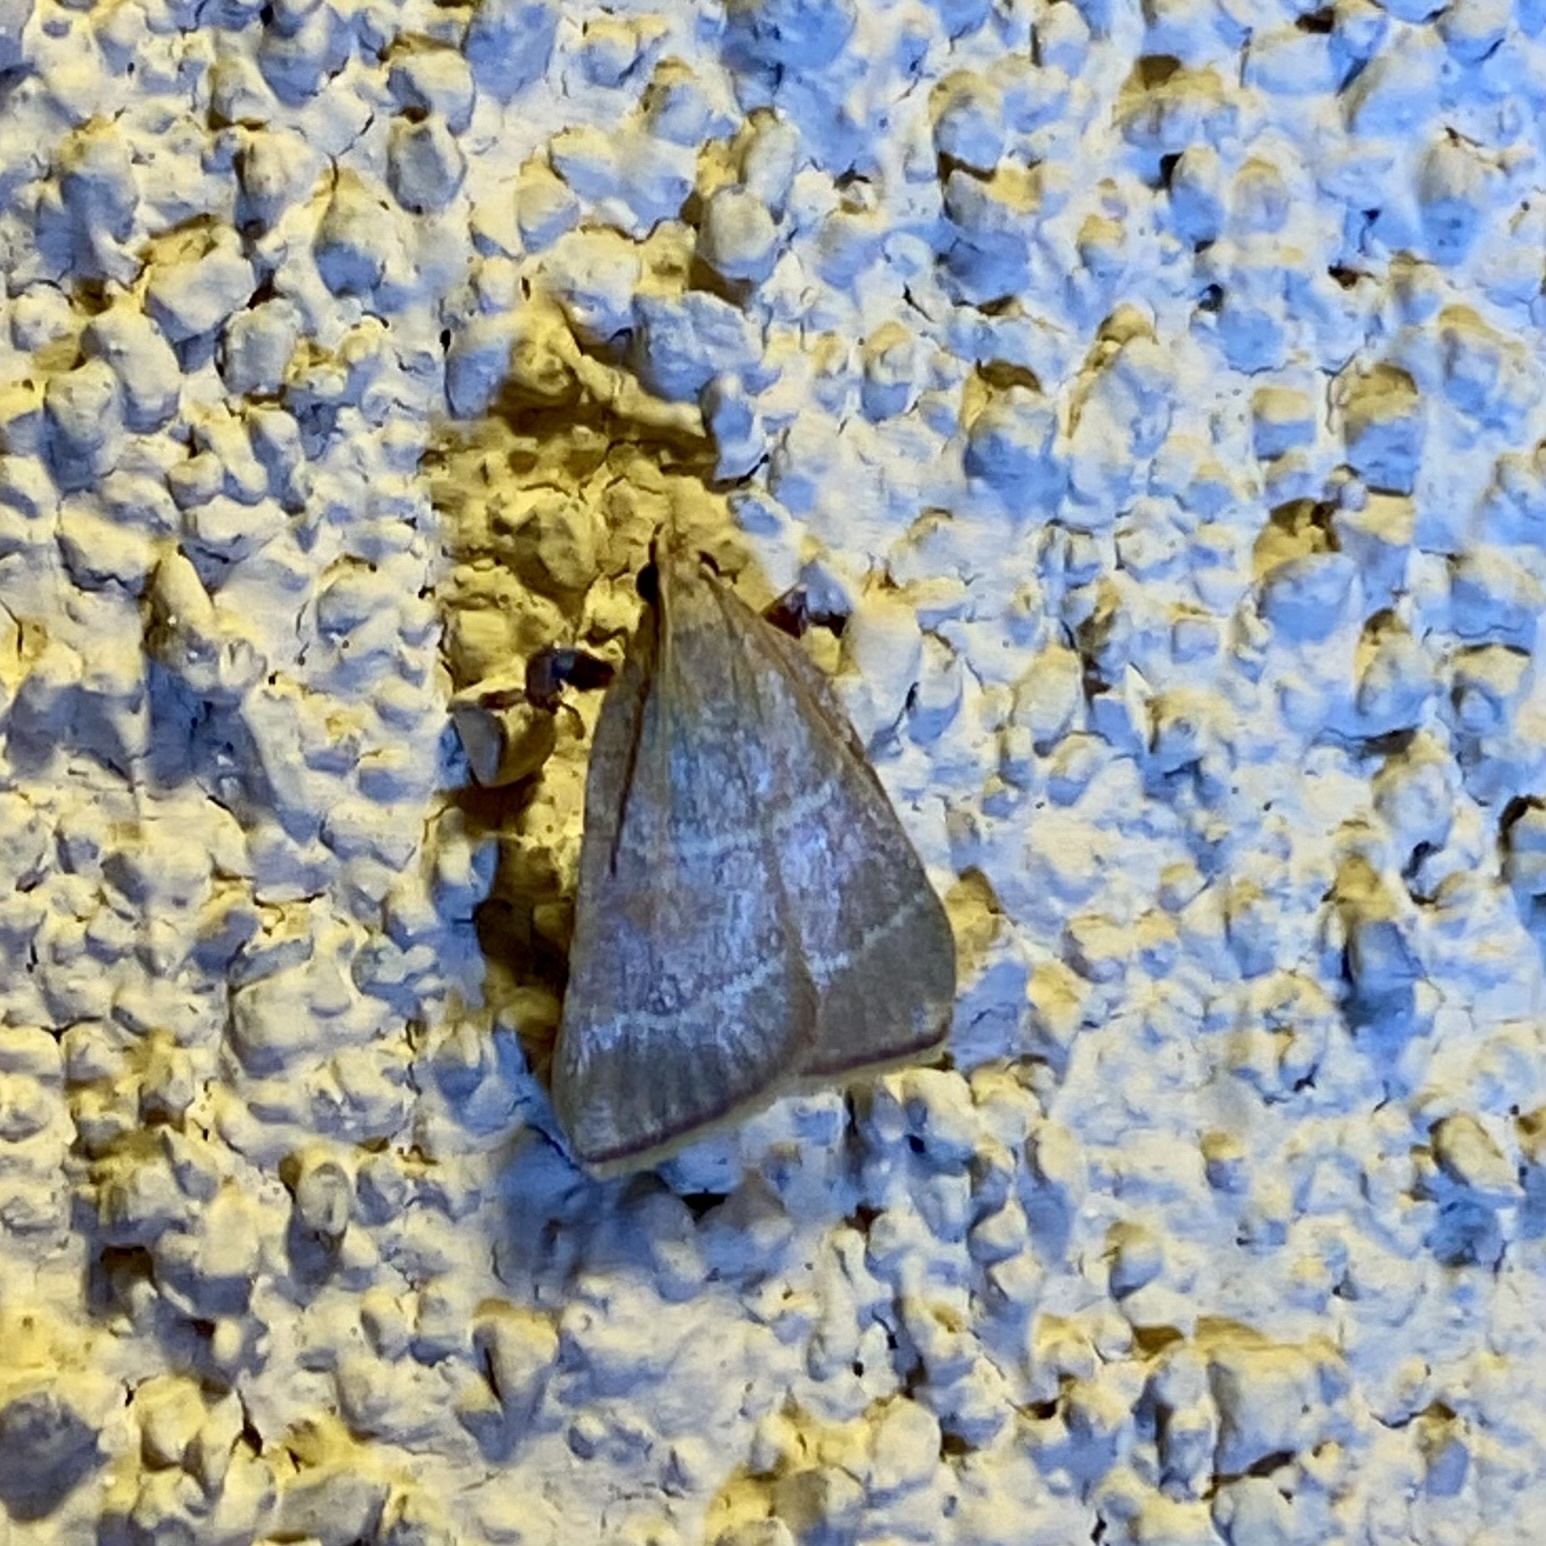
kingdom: Animalia
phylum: Arthropoda
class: Insecta
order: Lepidoptera
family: Pyralidae
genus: Parachma
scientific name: Parachma ochracealis
